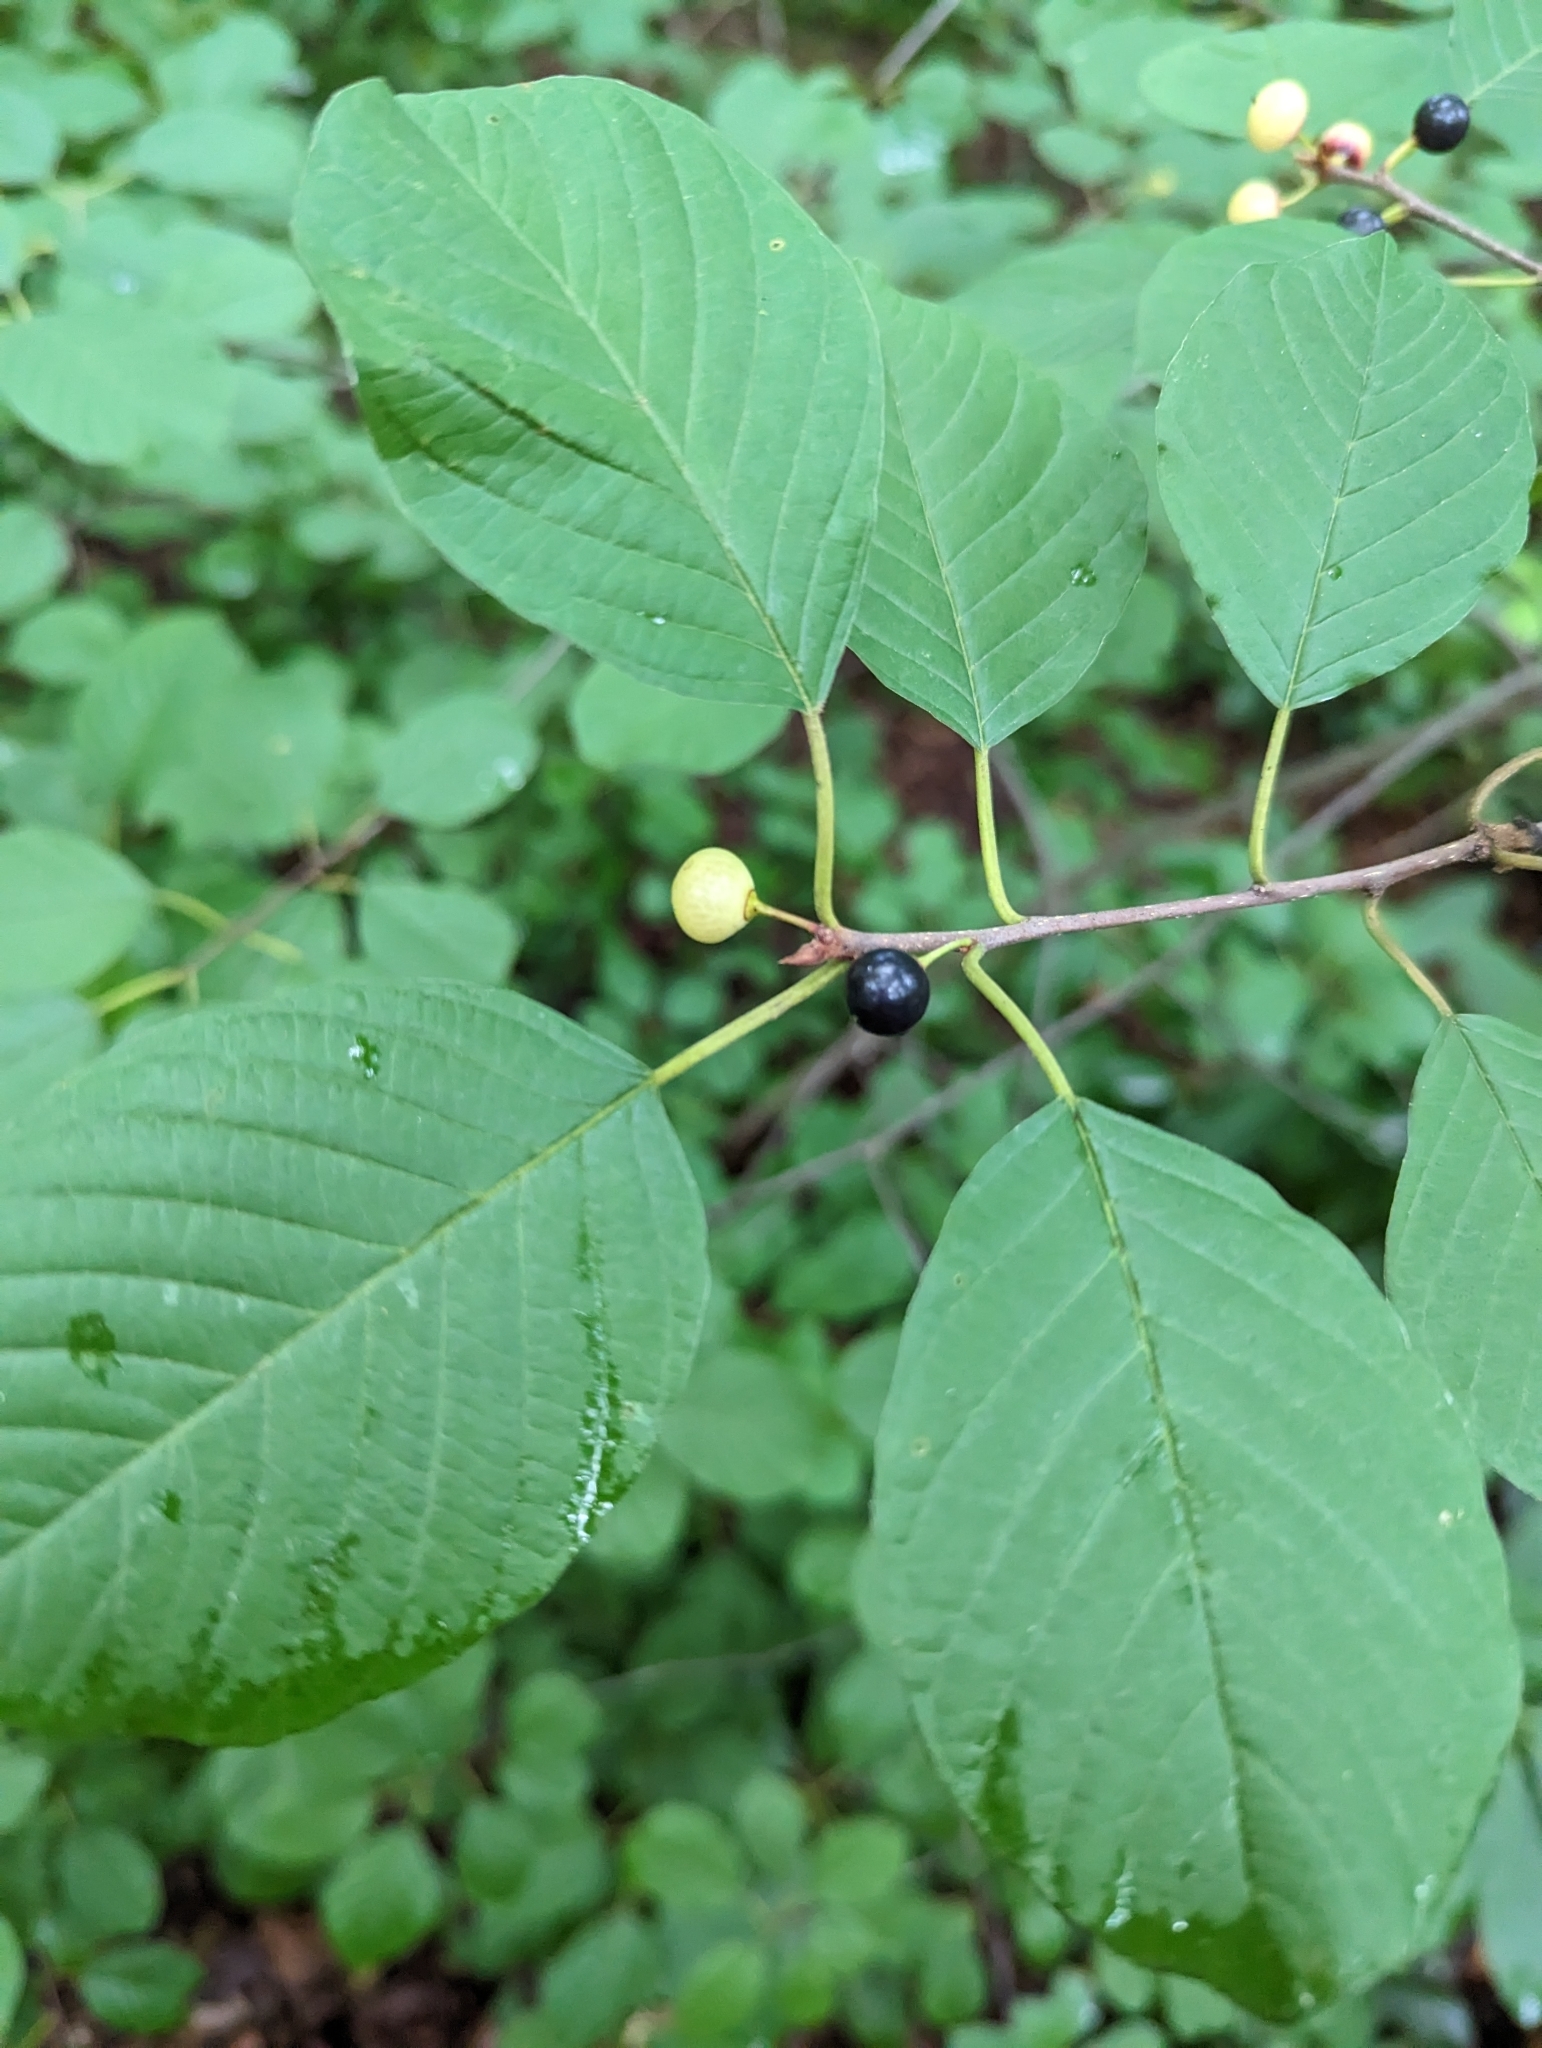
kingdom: Plantae
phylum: Tracheophyta
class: Magnoliopsida
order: Rosales
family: Rhamnaceae
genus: Frangula
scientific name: Frangula alnus
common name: Alder buckthorn
